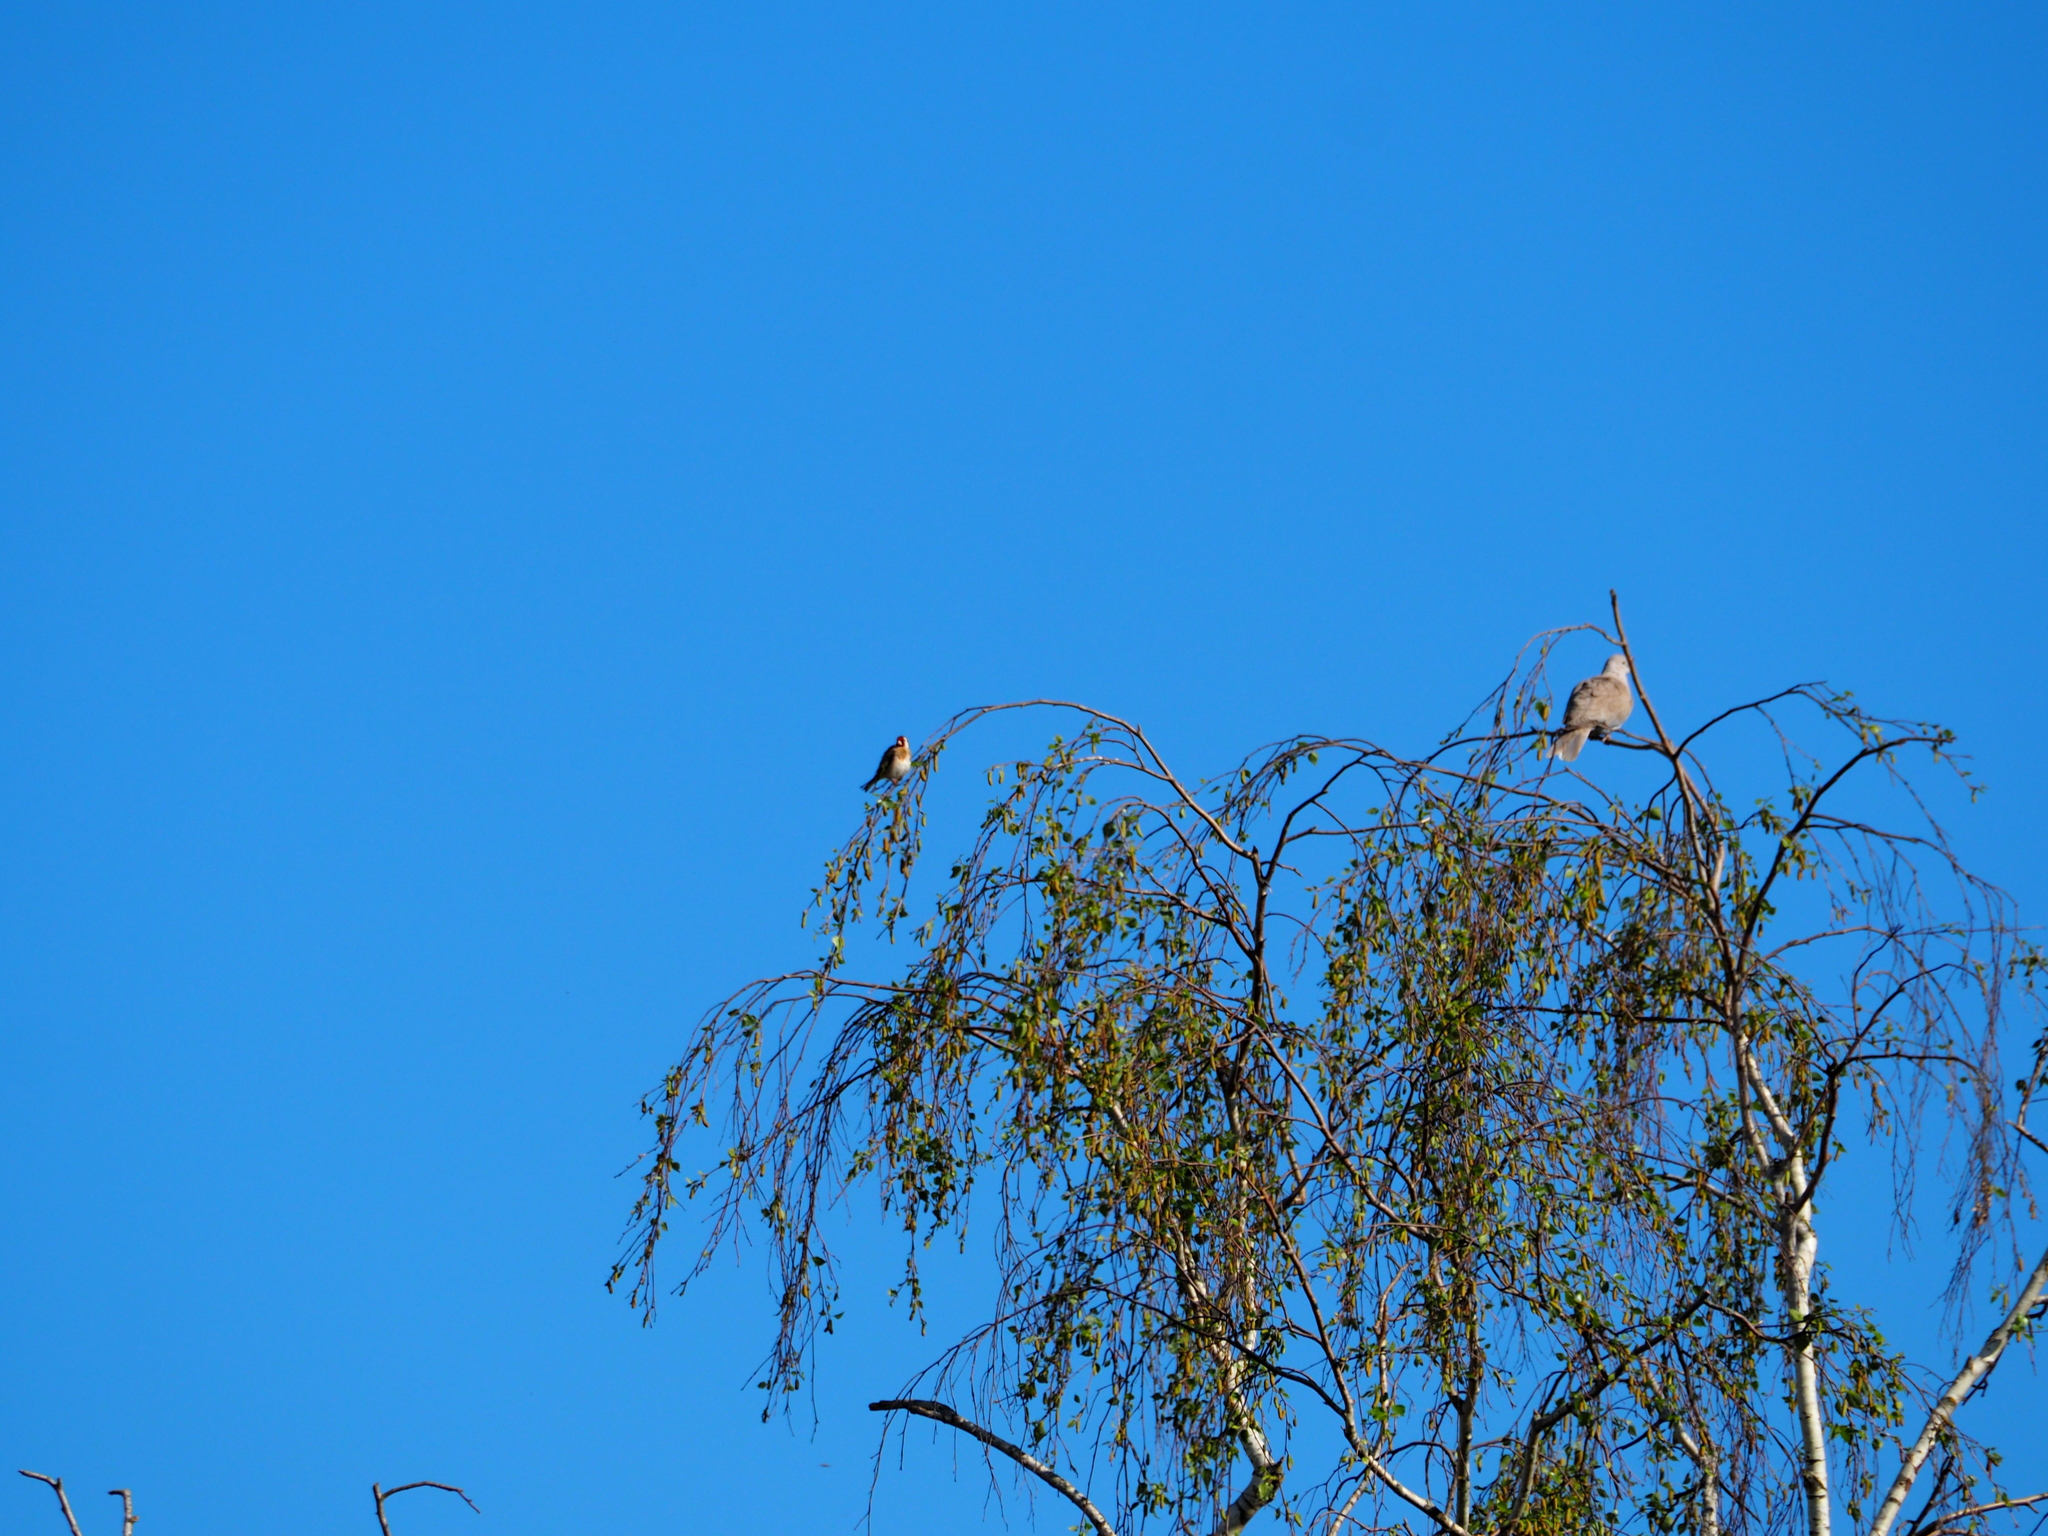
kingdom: Animalia
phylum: Chordata
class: Aves
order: Passeriformes
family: Fringillidae
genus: Carduelis
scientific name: Carduelis carduelis
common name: European goldfinch
